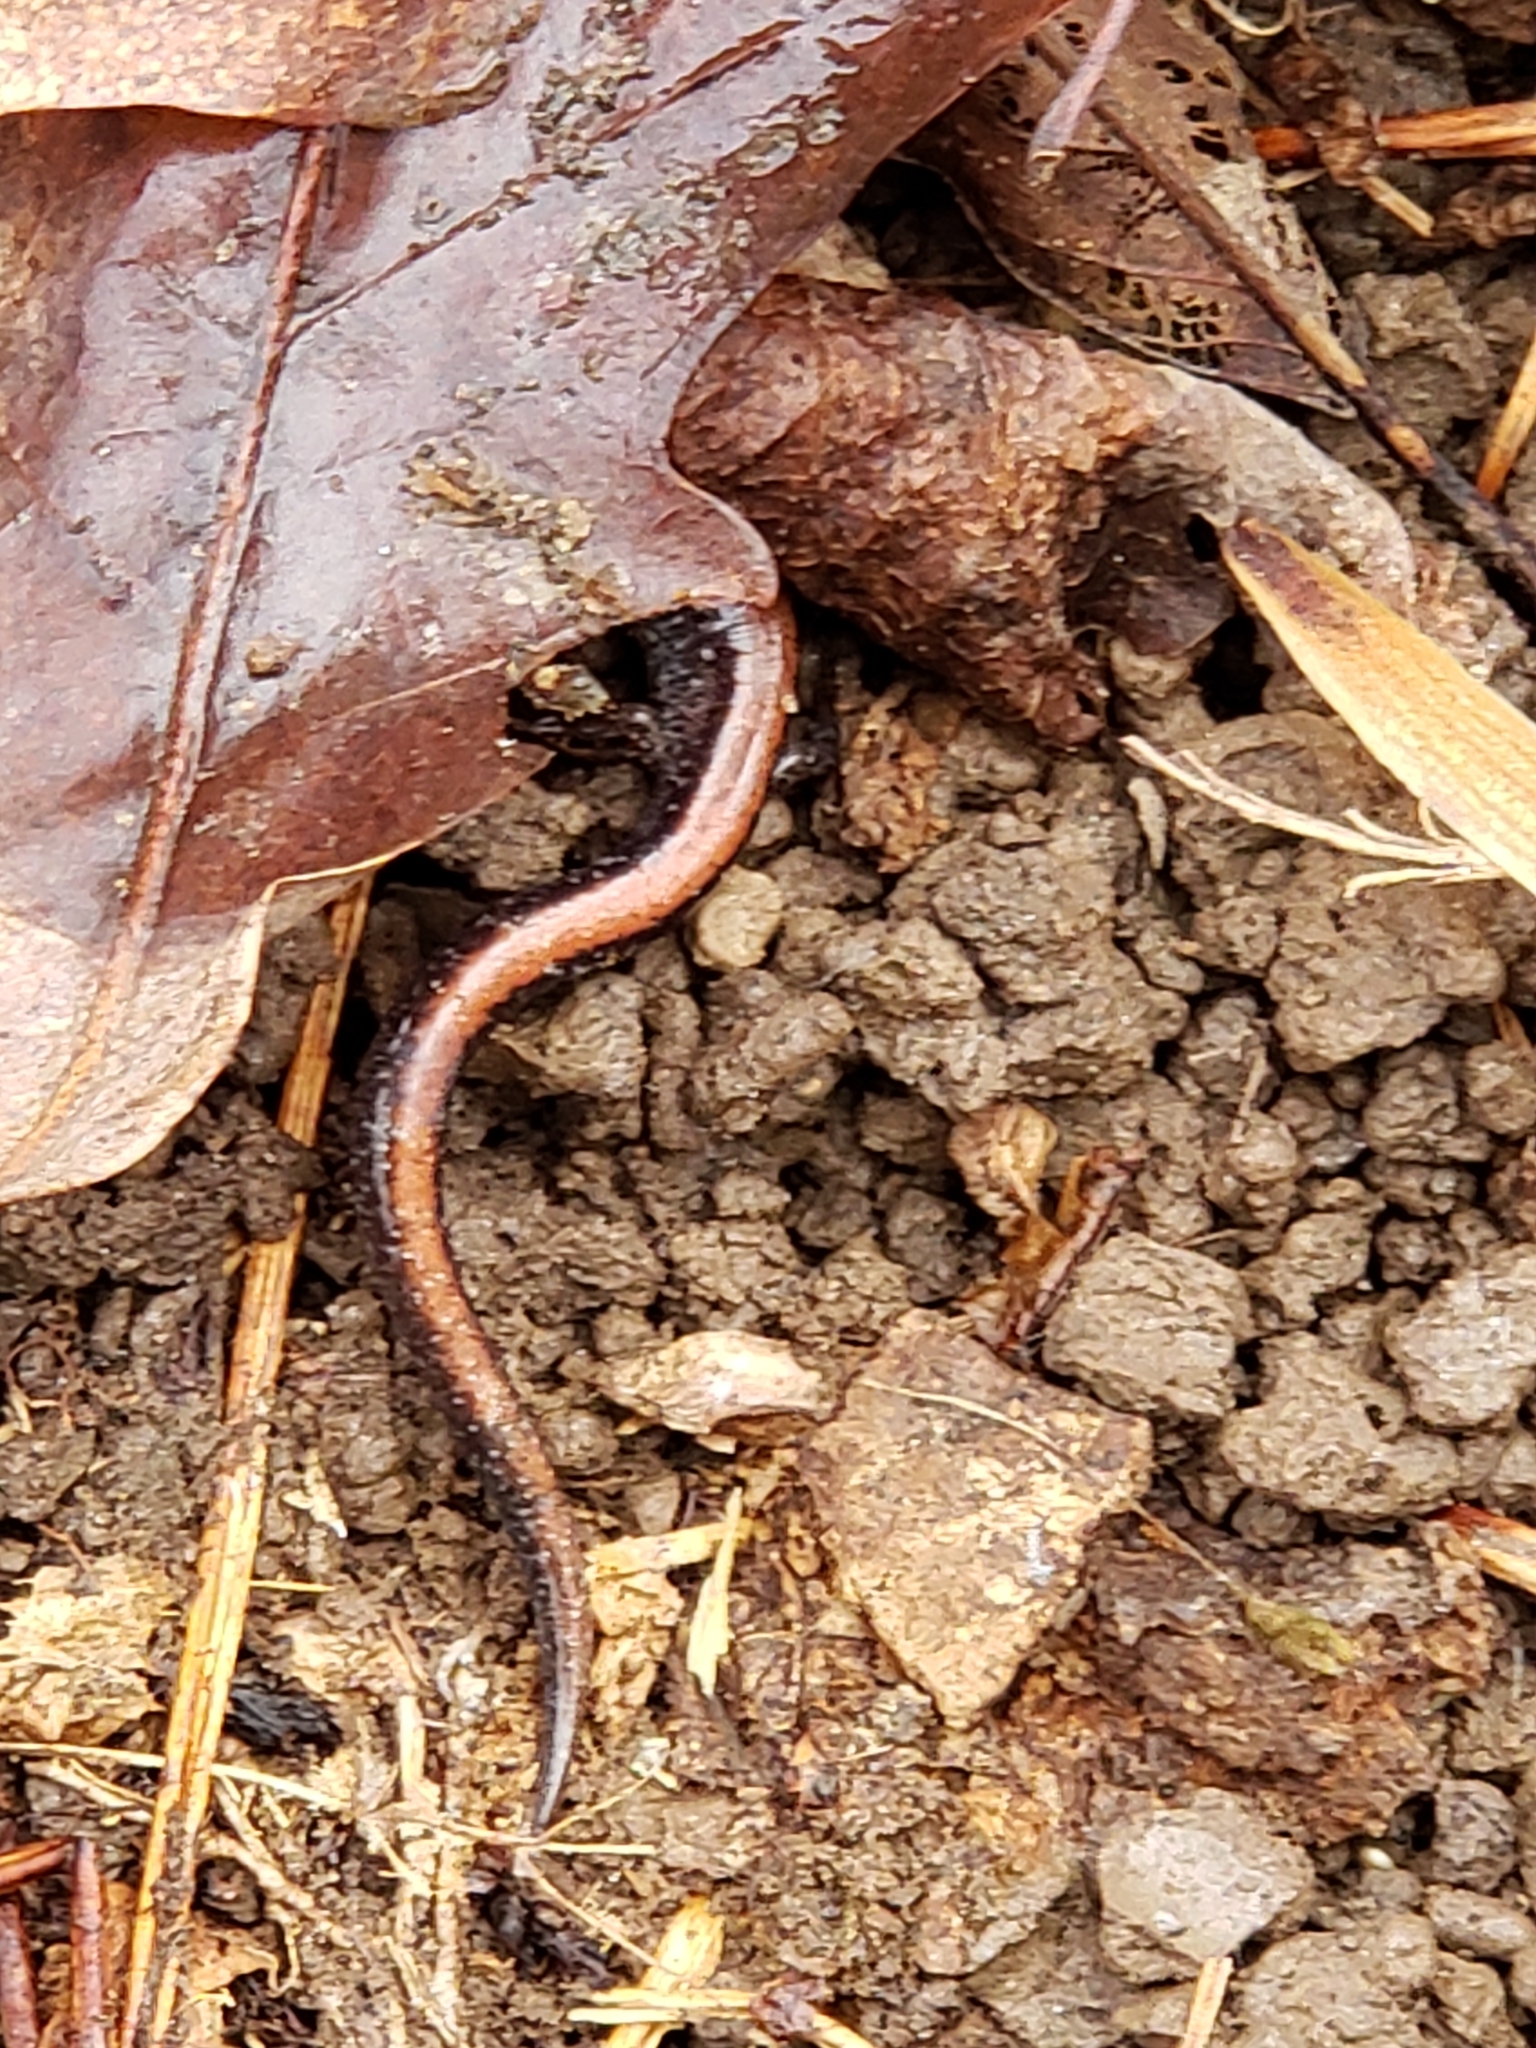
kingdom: Animalia
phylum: Chordata
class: Amphibia
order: Caudata
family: Plethodontidae
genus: Plethodon
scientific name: Plethodon cinereus
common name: Redback salamander
